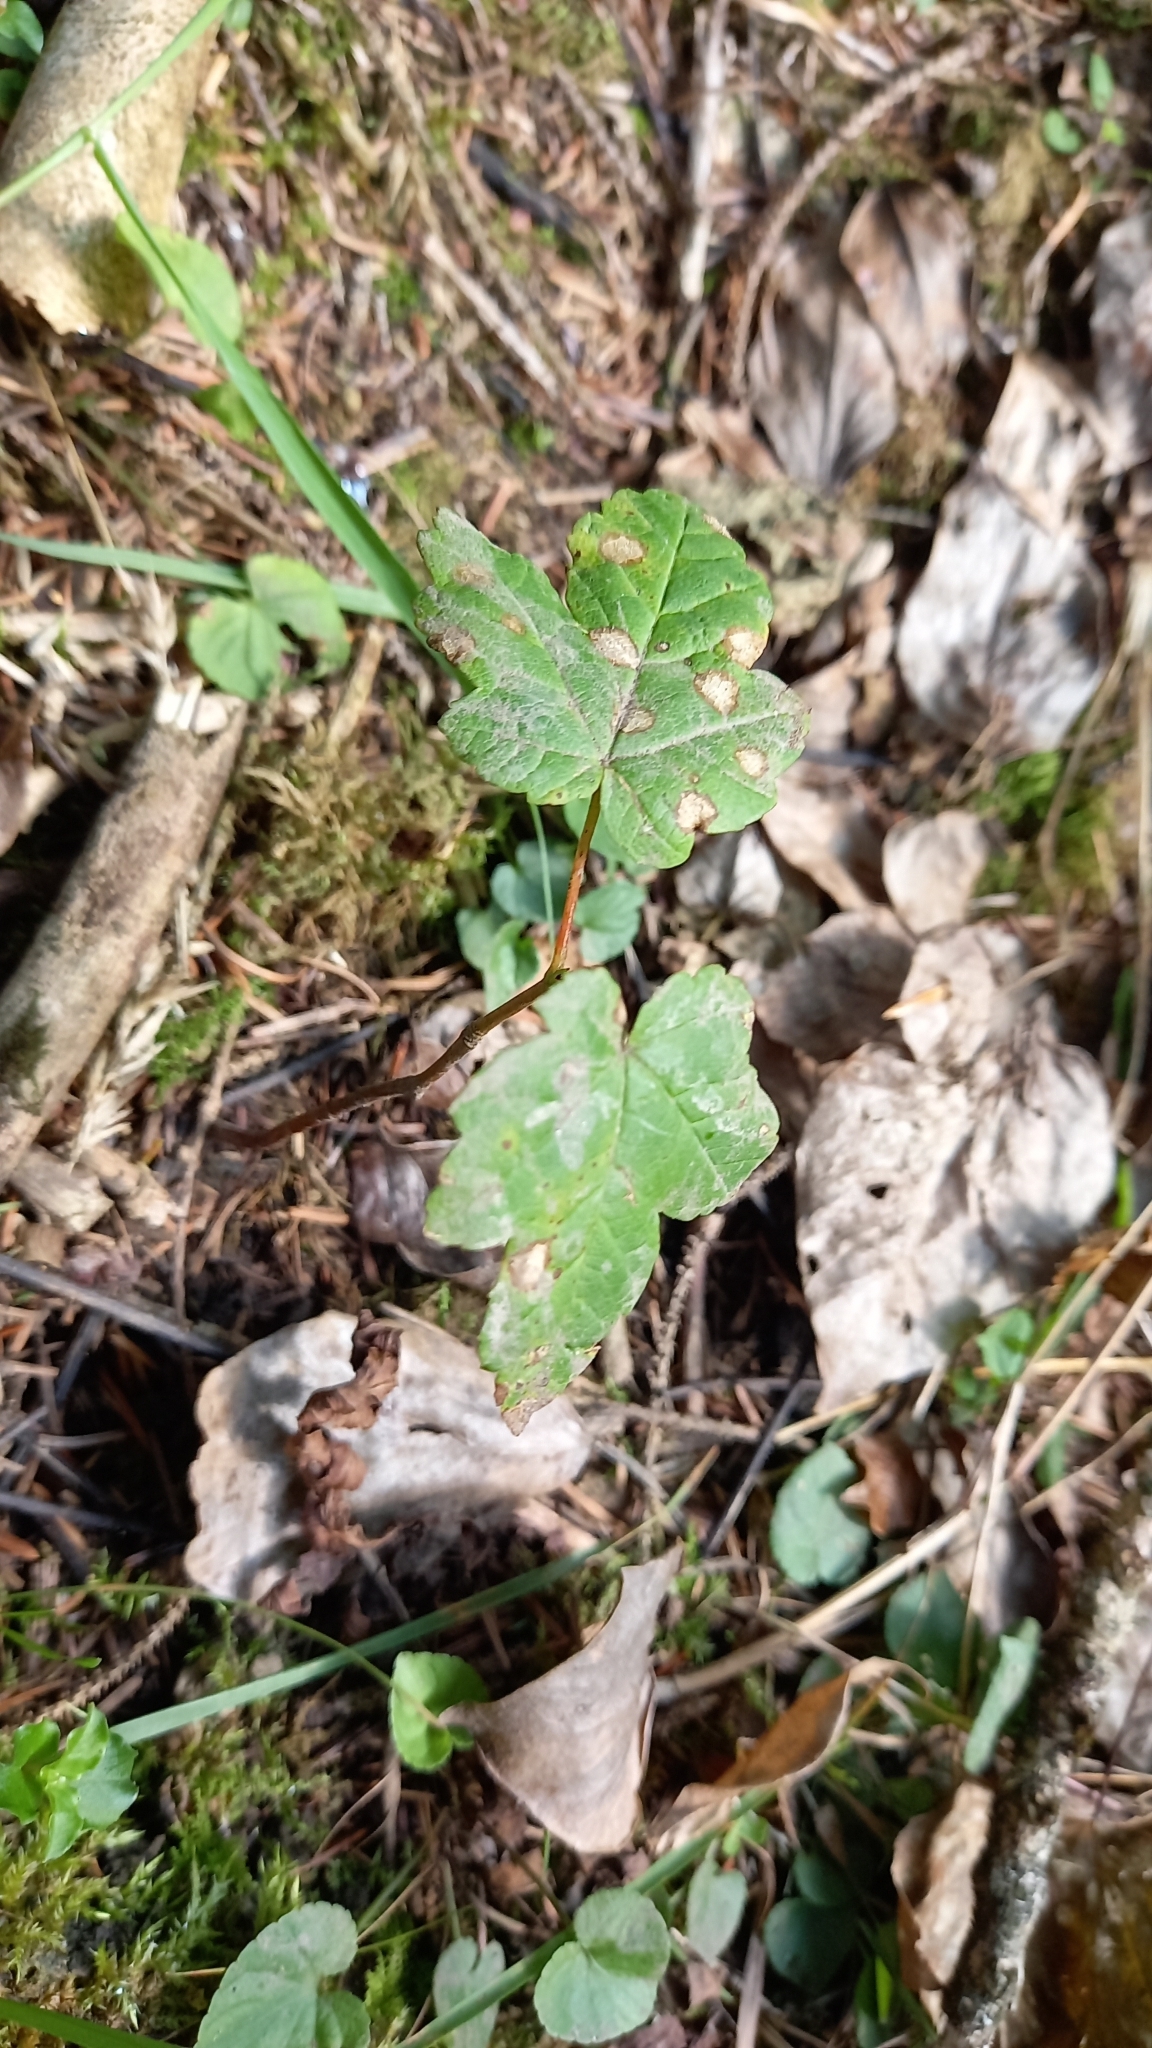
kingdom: Plantae
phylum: Tracheophyta
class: Magnoliopsida
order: Sapindales
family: Sapindaceae
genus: Acer
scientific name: Acer pseudoplatanus
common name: Sycamore
